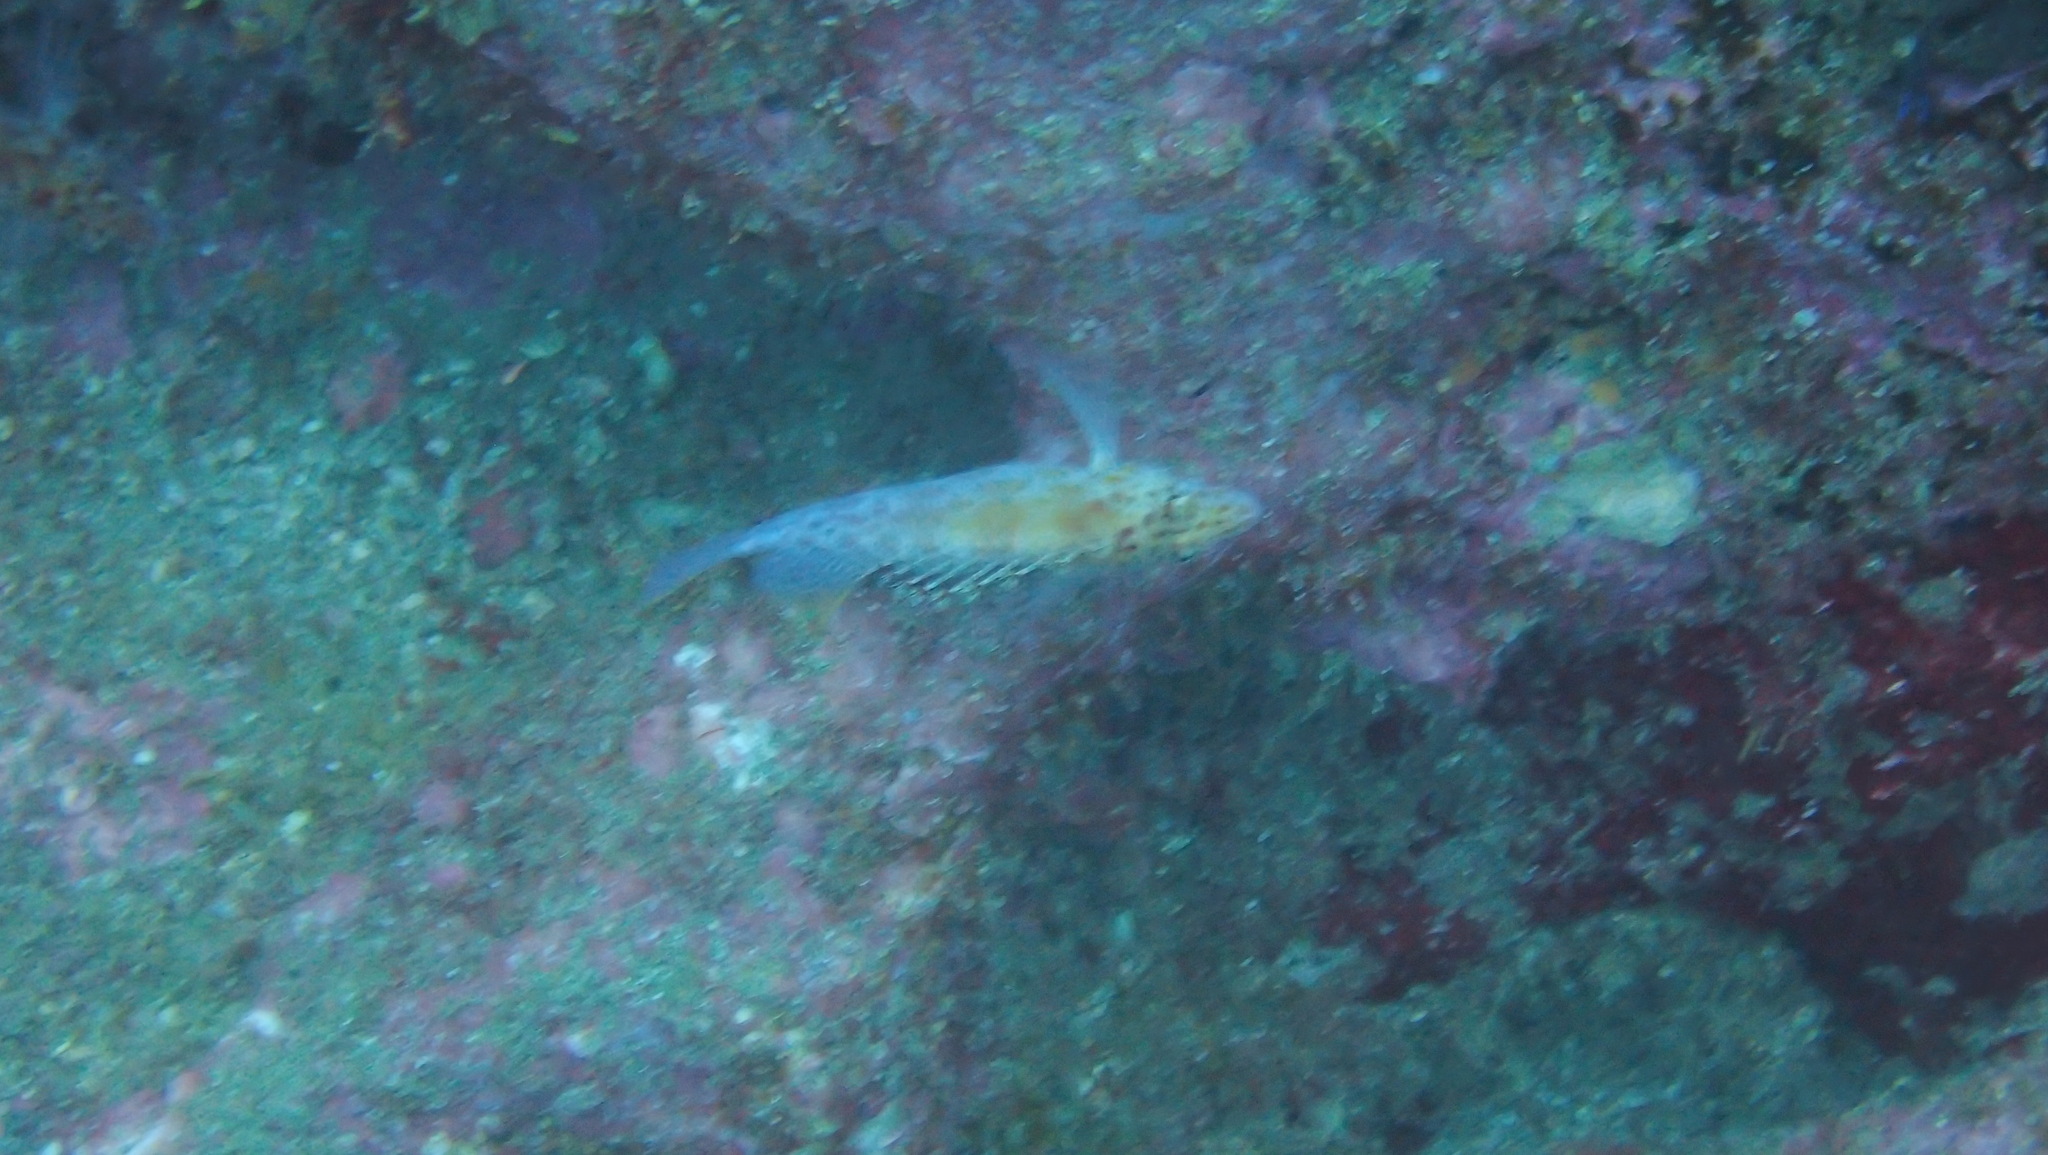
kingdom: Animalia
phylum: Chordata
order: Perciformes
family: Cirrhitidae
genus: Cirrhitichthys
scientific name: Cirrhitichthys oxycephalus
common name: Spotted hawkfish
